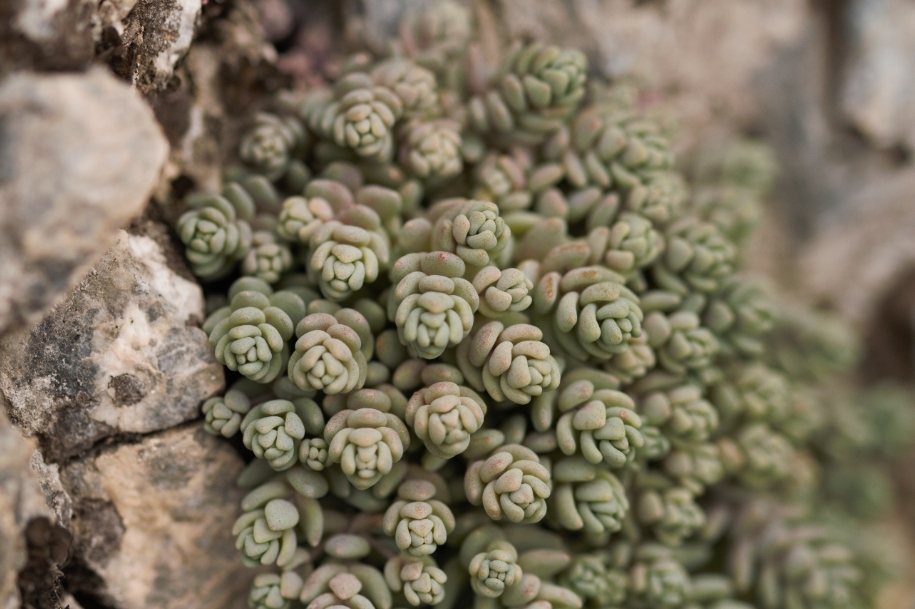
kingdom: Plantae
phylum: Tracheophyta
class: Magnoliopsida
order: Saxifragales
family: Crassulaceae
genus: Sedum
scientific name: Sedum dasyphyllum
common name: Thick-leaf stonecrop
